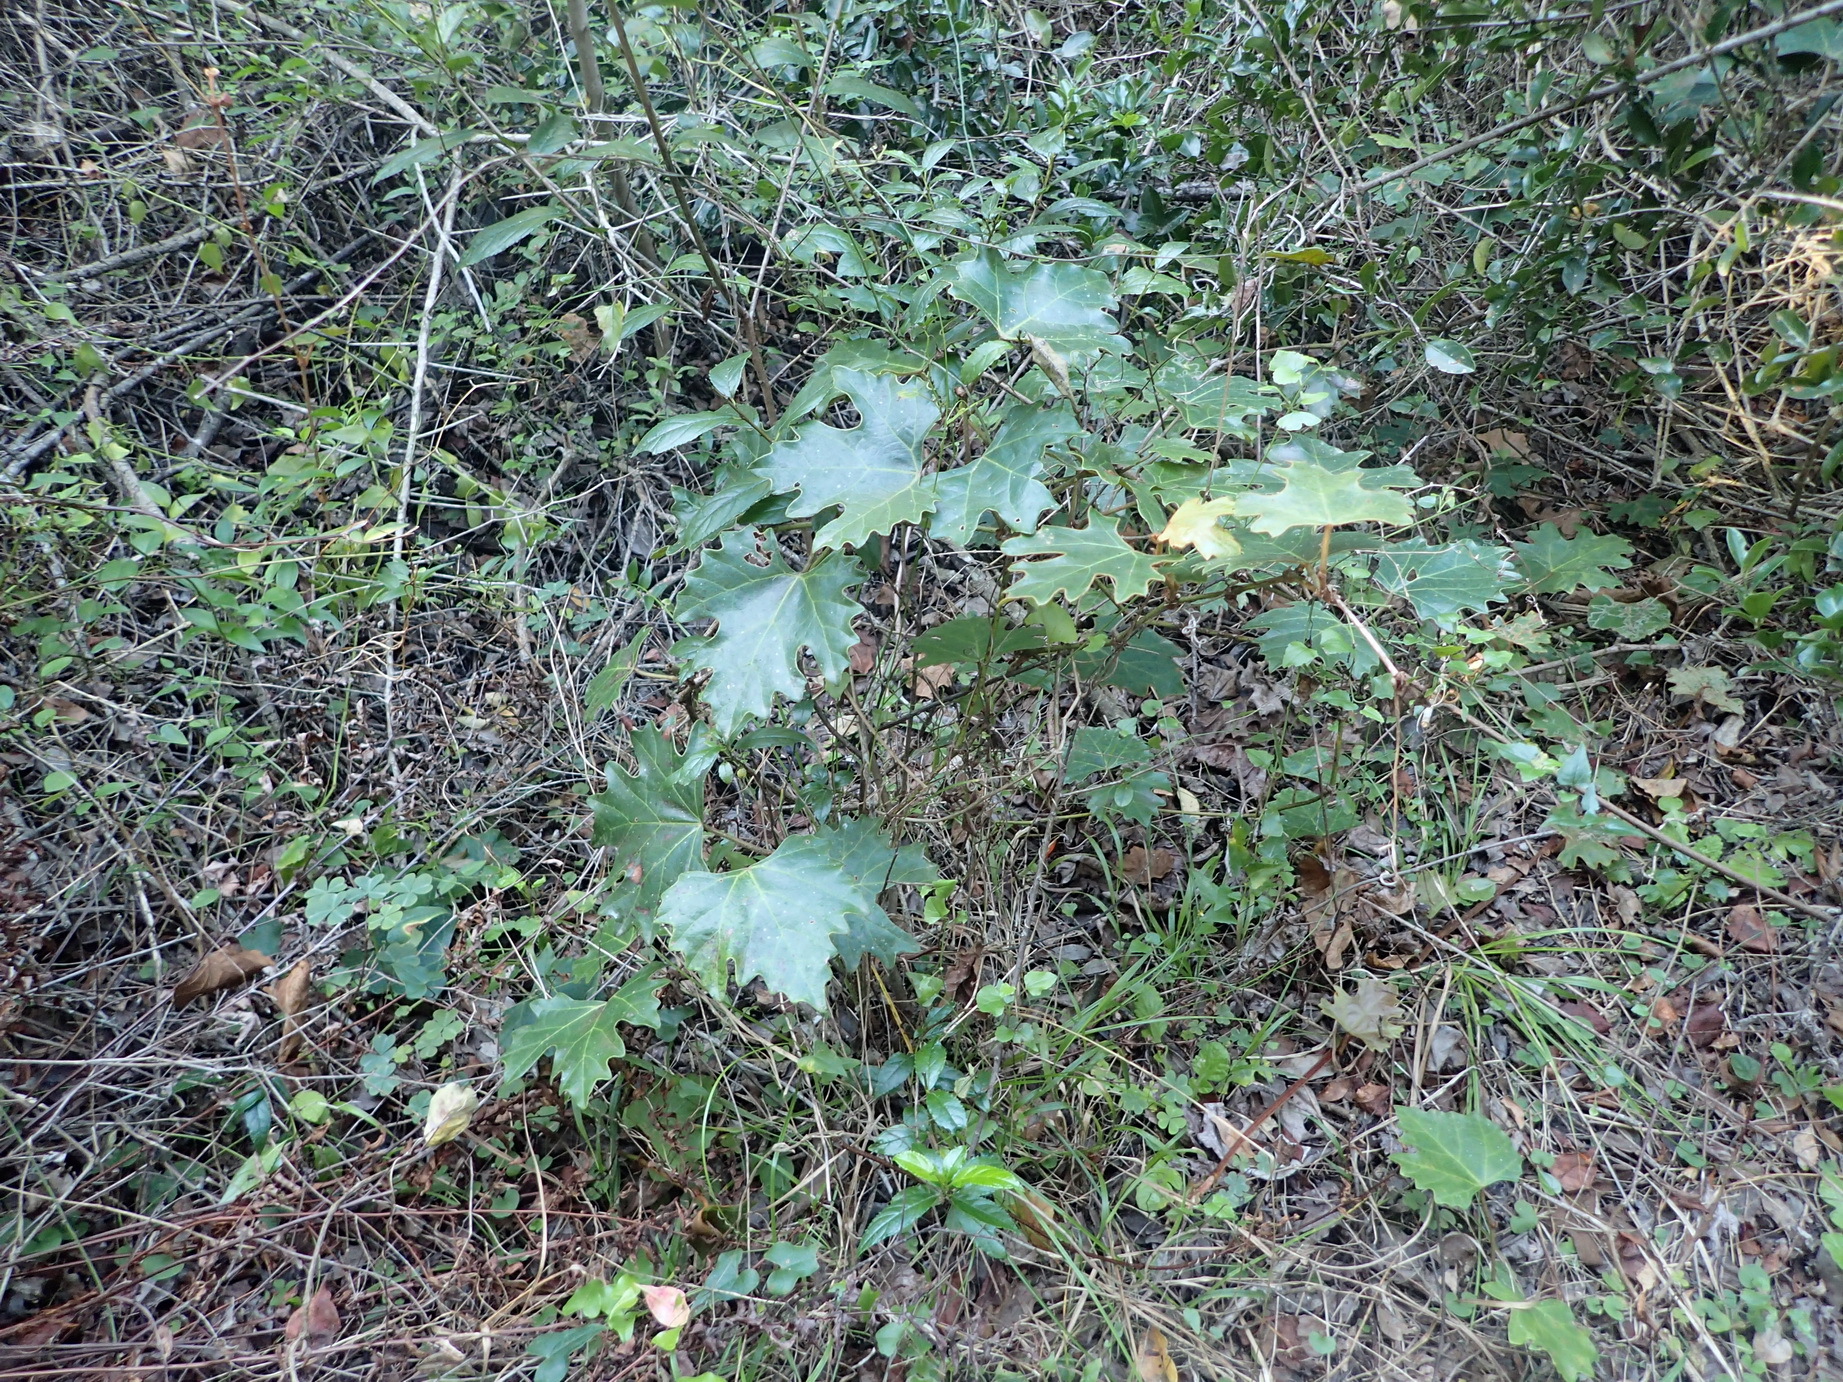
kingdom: Plantae
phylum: Tracheophyta
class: Magnoliopsida
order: Vitales
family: Vitaceae
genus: Rhoicissus
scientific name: Rhoicissus tomentosa
